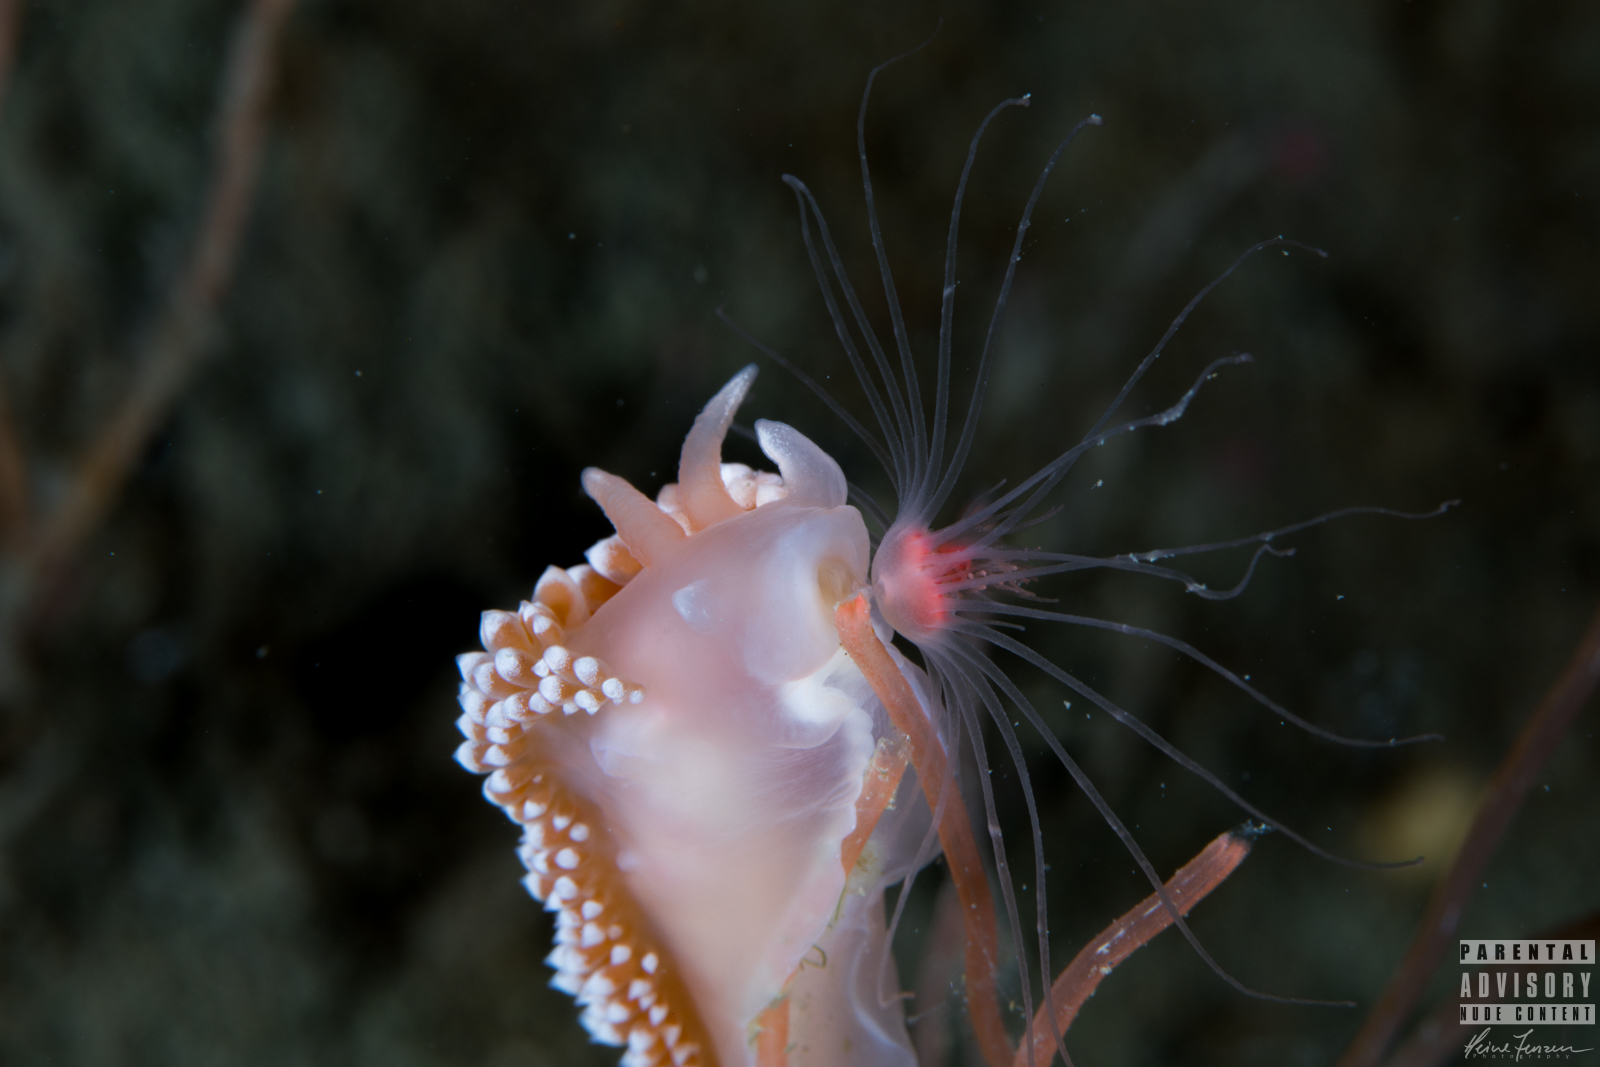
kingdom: Animalia
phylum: Mollusca
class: Gastropoda
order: Nudibranchia
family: Coryphellidae
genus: Coryphella
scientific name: Coryphella verrucosa
